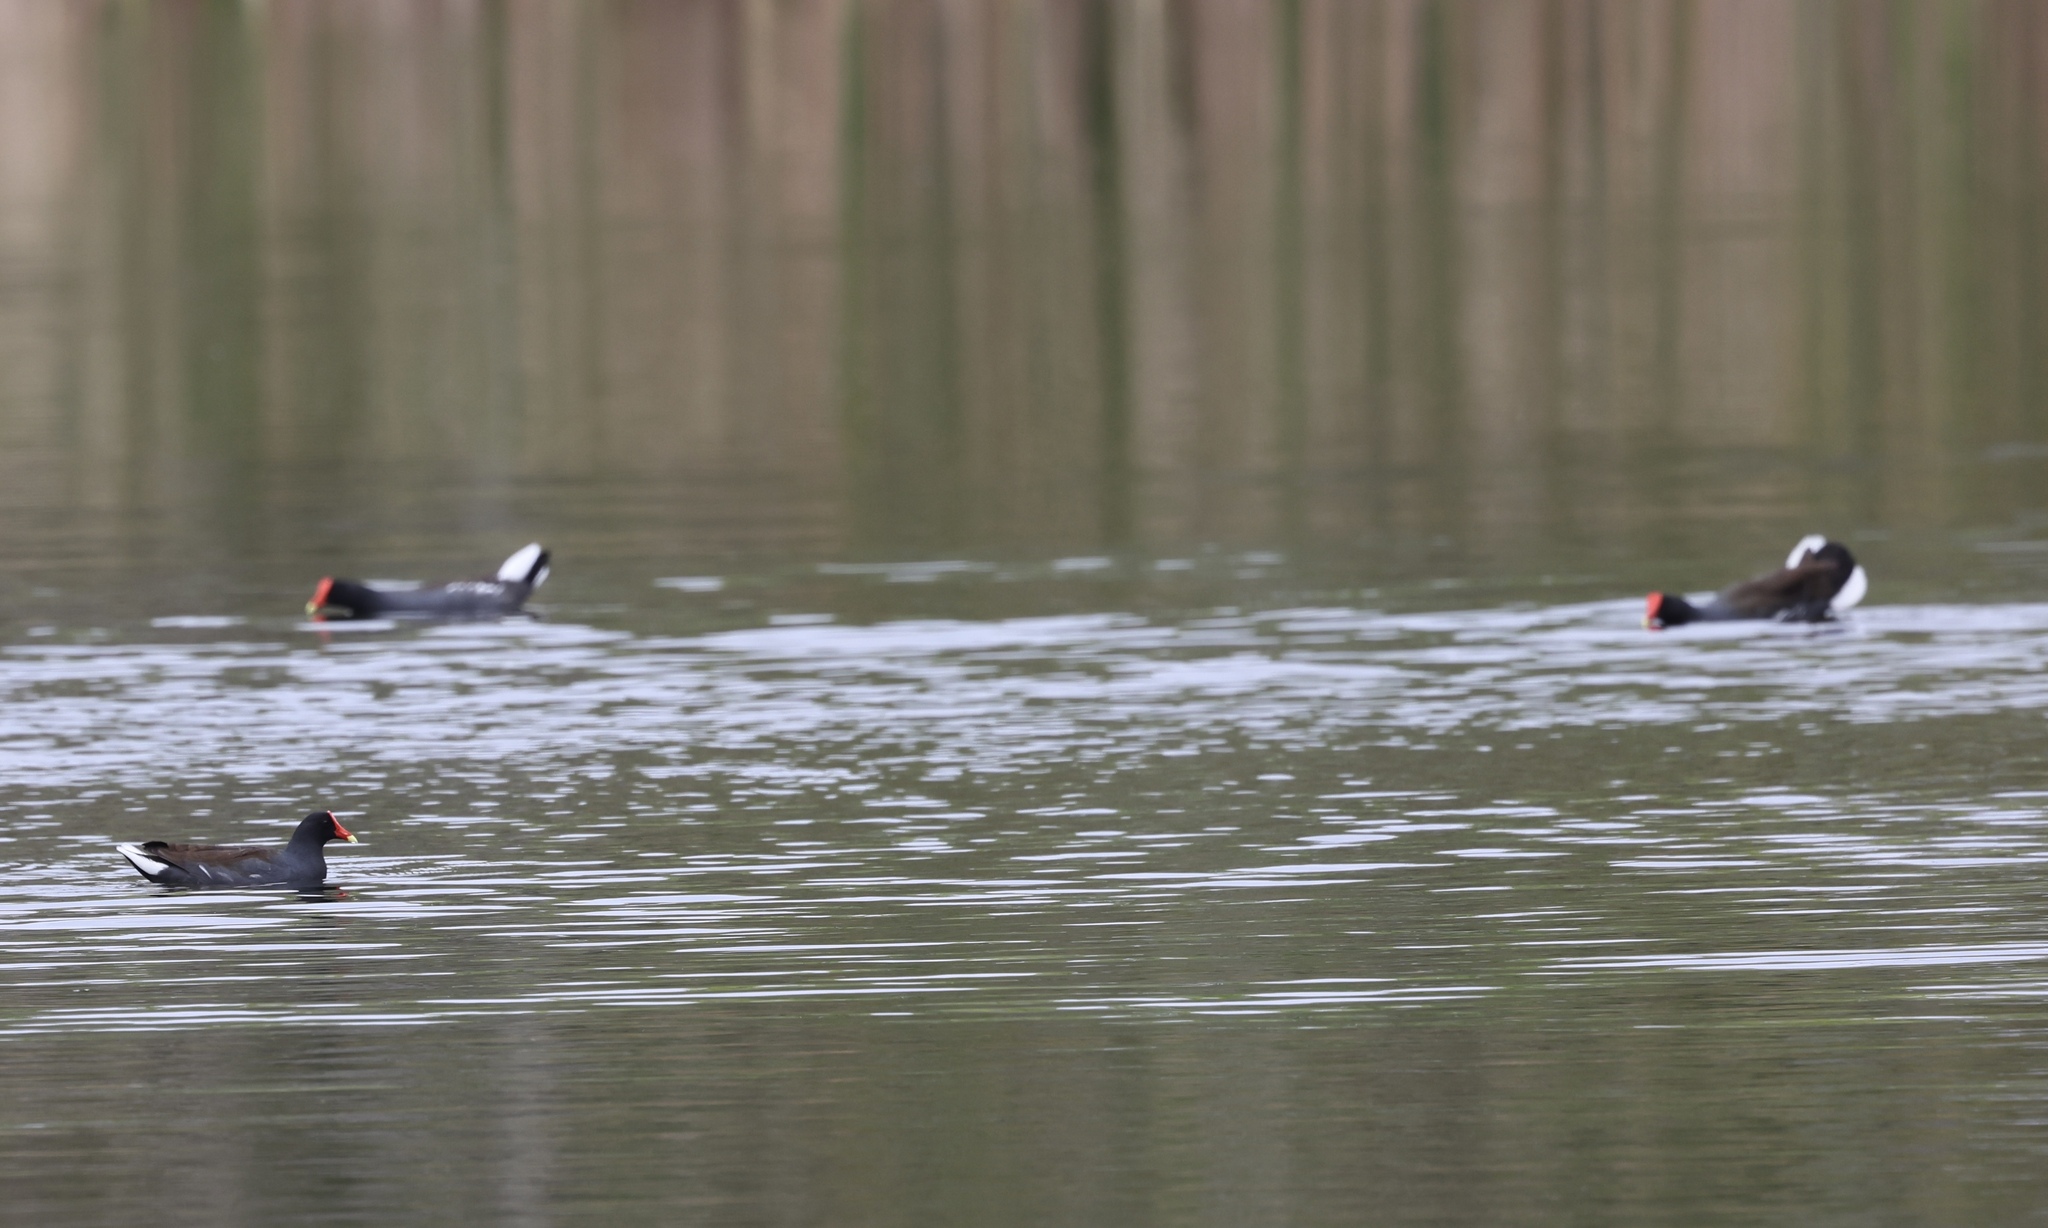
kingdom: Animalia
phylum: Chordata
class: Aves
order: Gruiformes
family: Rallidae
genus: Gallinula
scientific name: Gallinula chloropus
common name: Common moorhen
